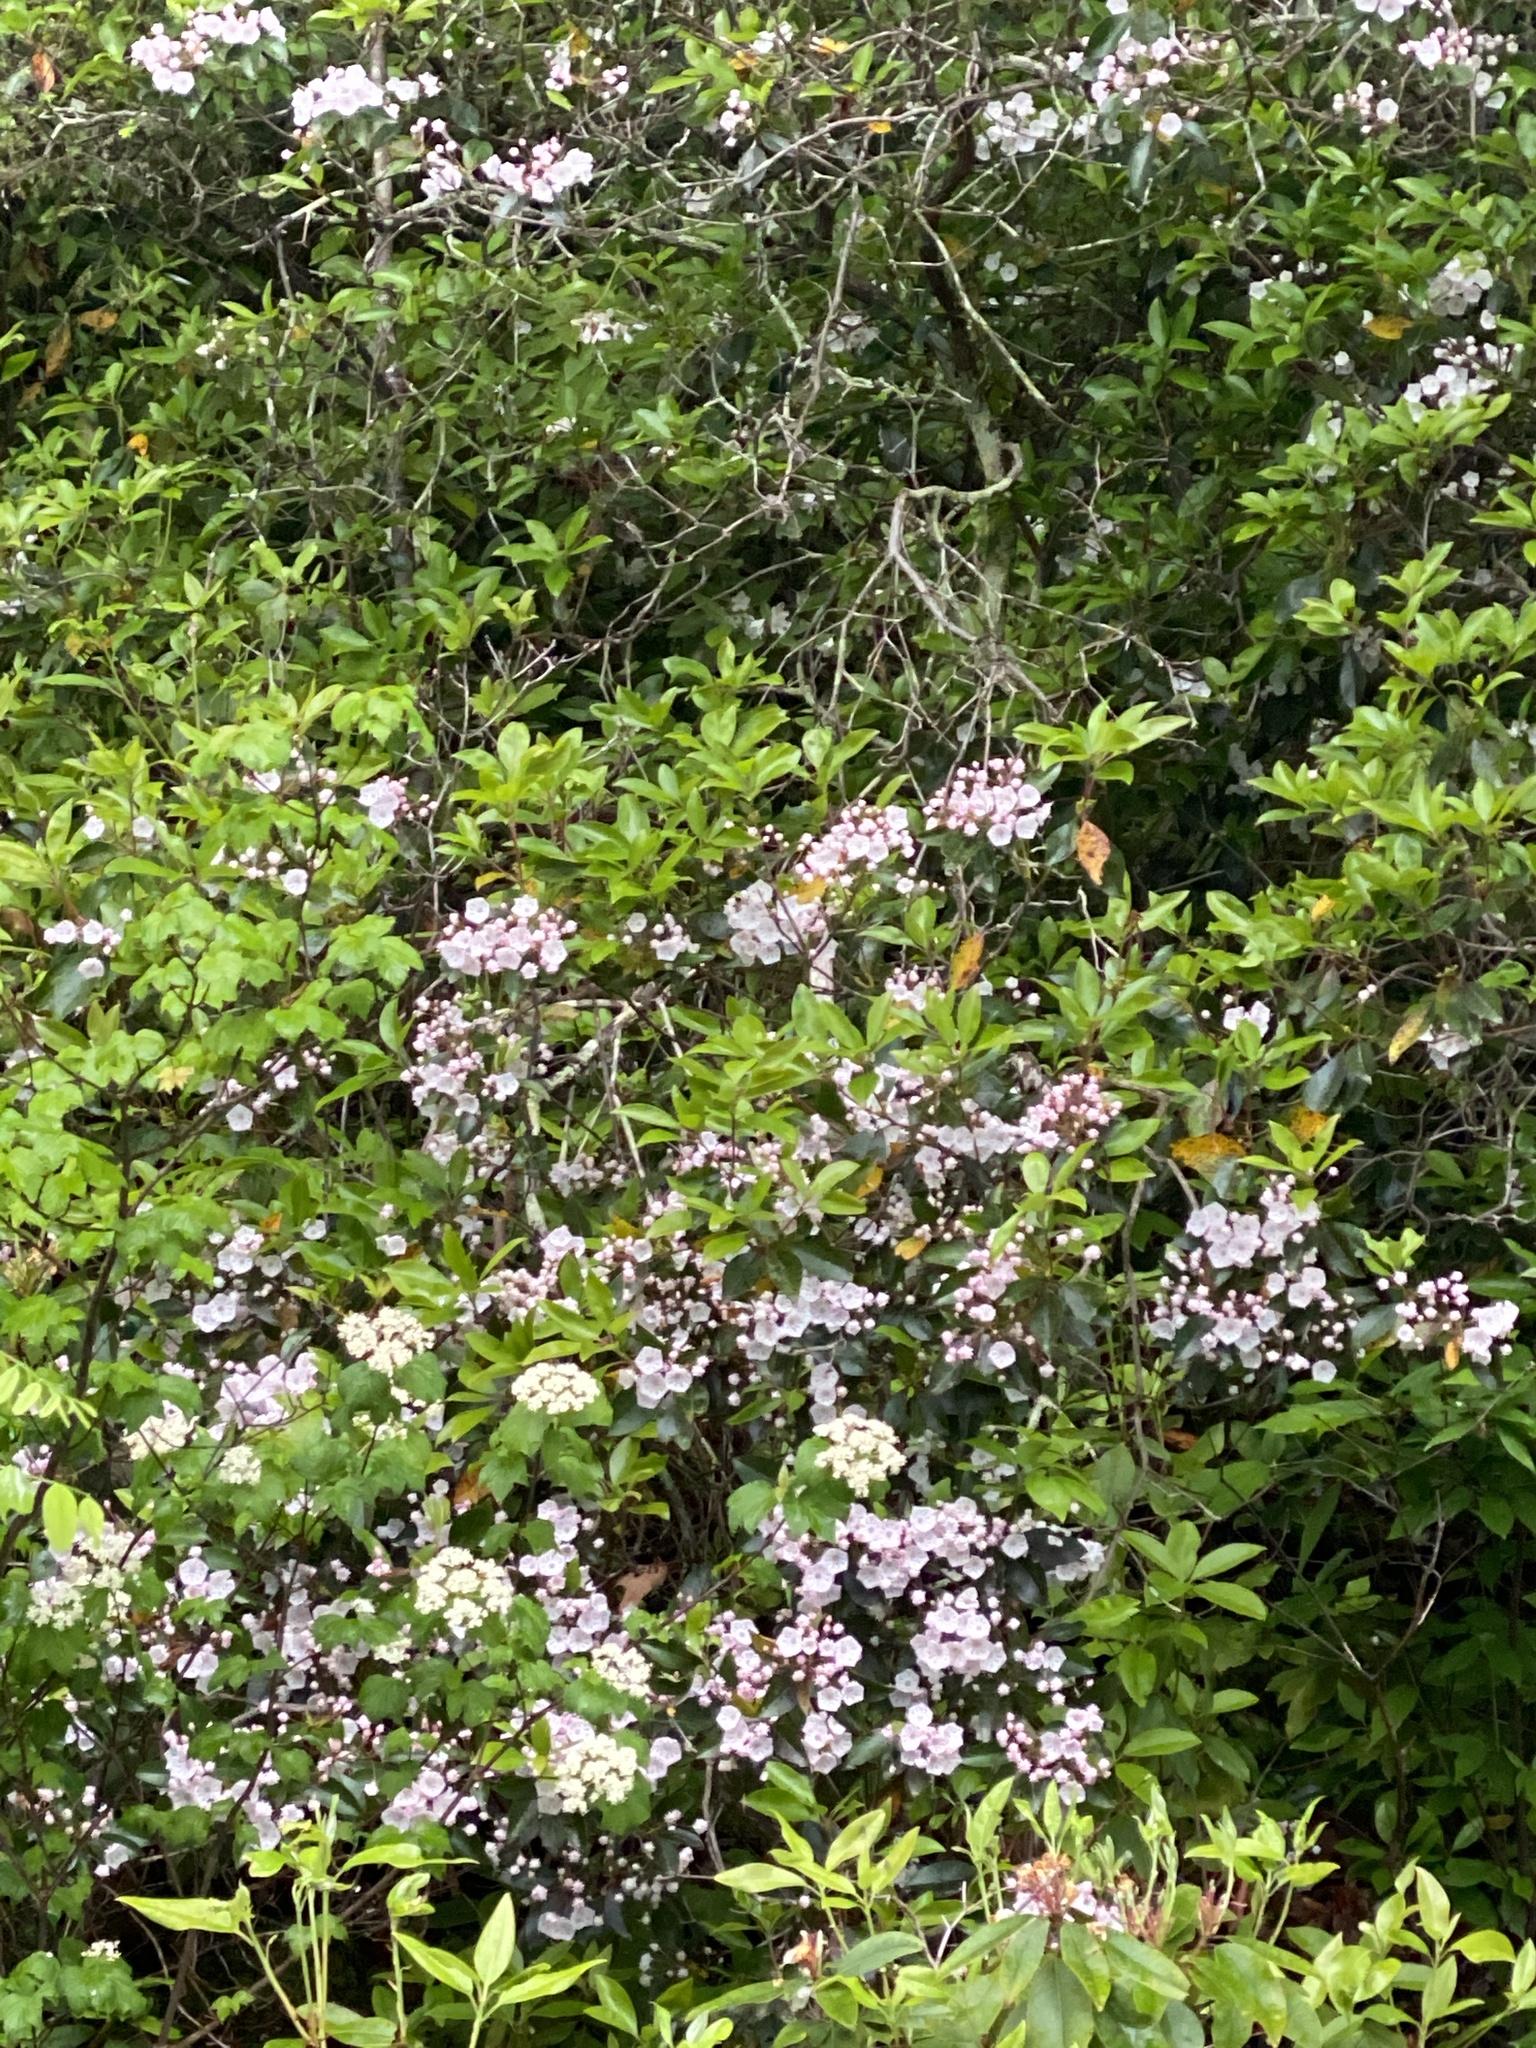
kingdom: Plantae
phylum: Tracheophyta
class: Magnoliopsida
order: Ericales
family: Ericaceae
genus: Kalmia
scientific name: Kalmia latifolia
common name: Mountain-laurel
